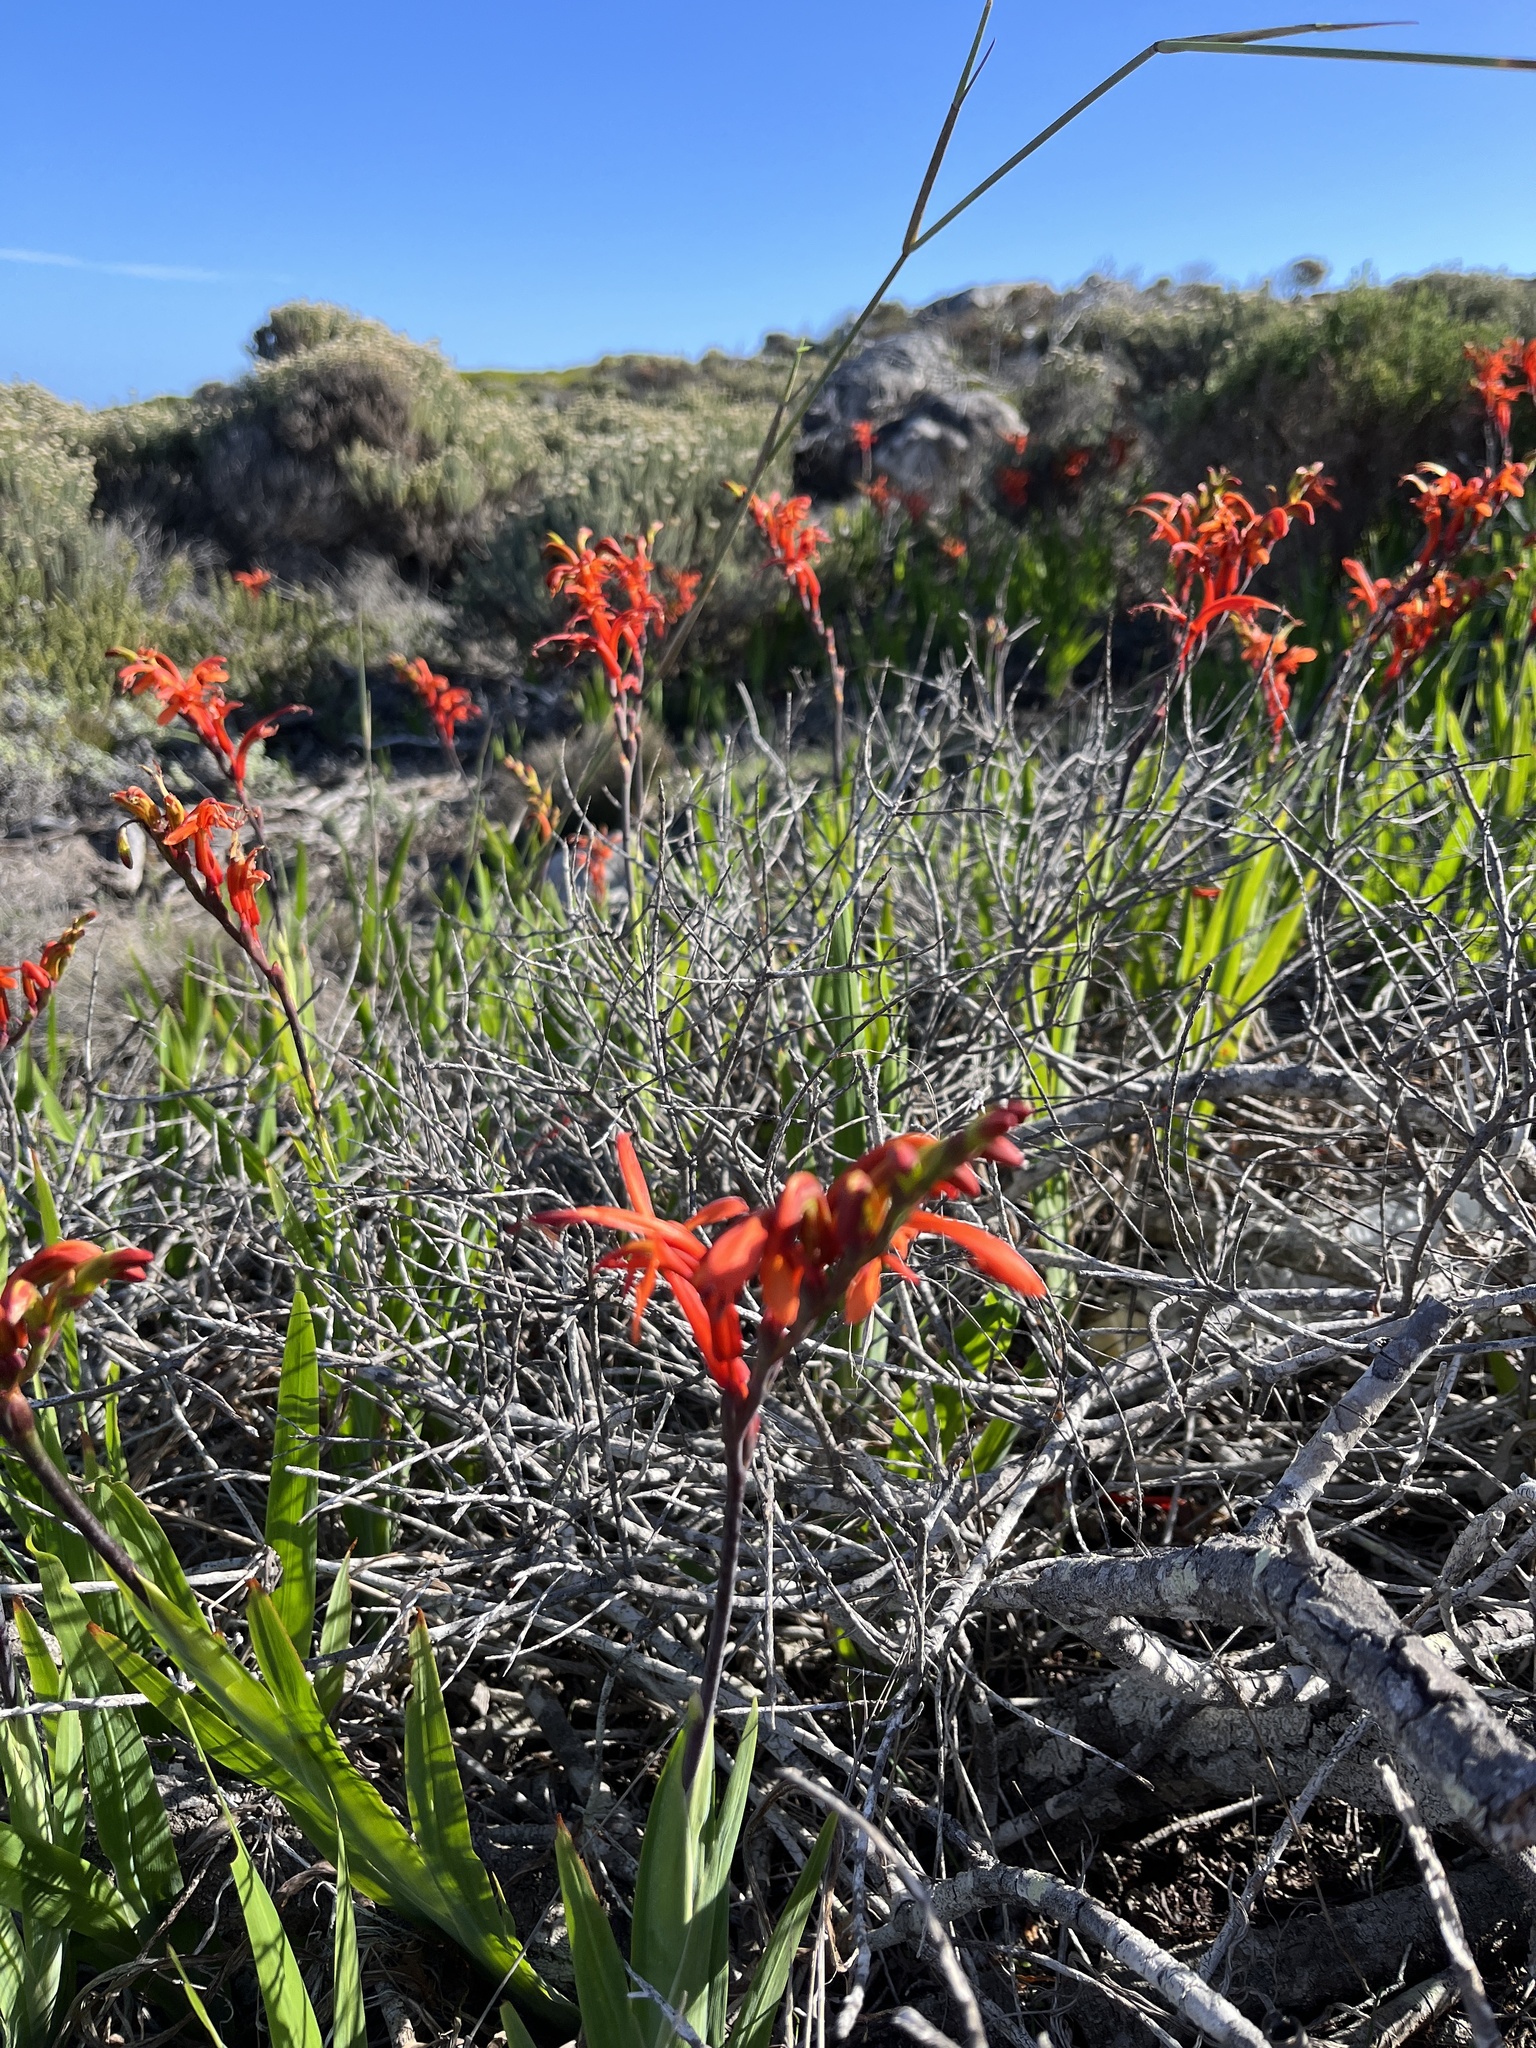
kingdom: Plantae
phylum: Tracheophyta
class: Liliopsida
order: Asparagales
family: Iridaceae
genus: Chasmanthe
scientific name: Chasmanthe aethiopica
